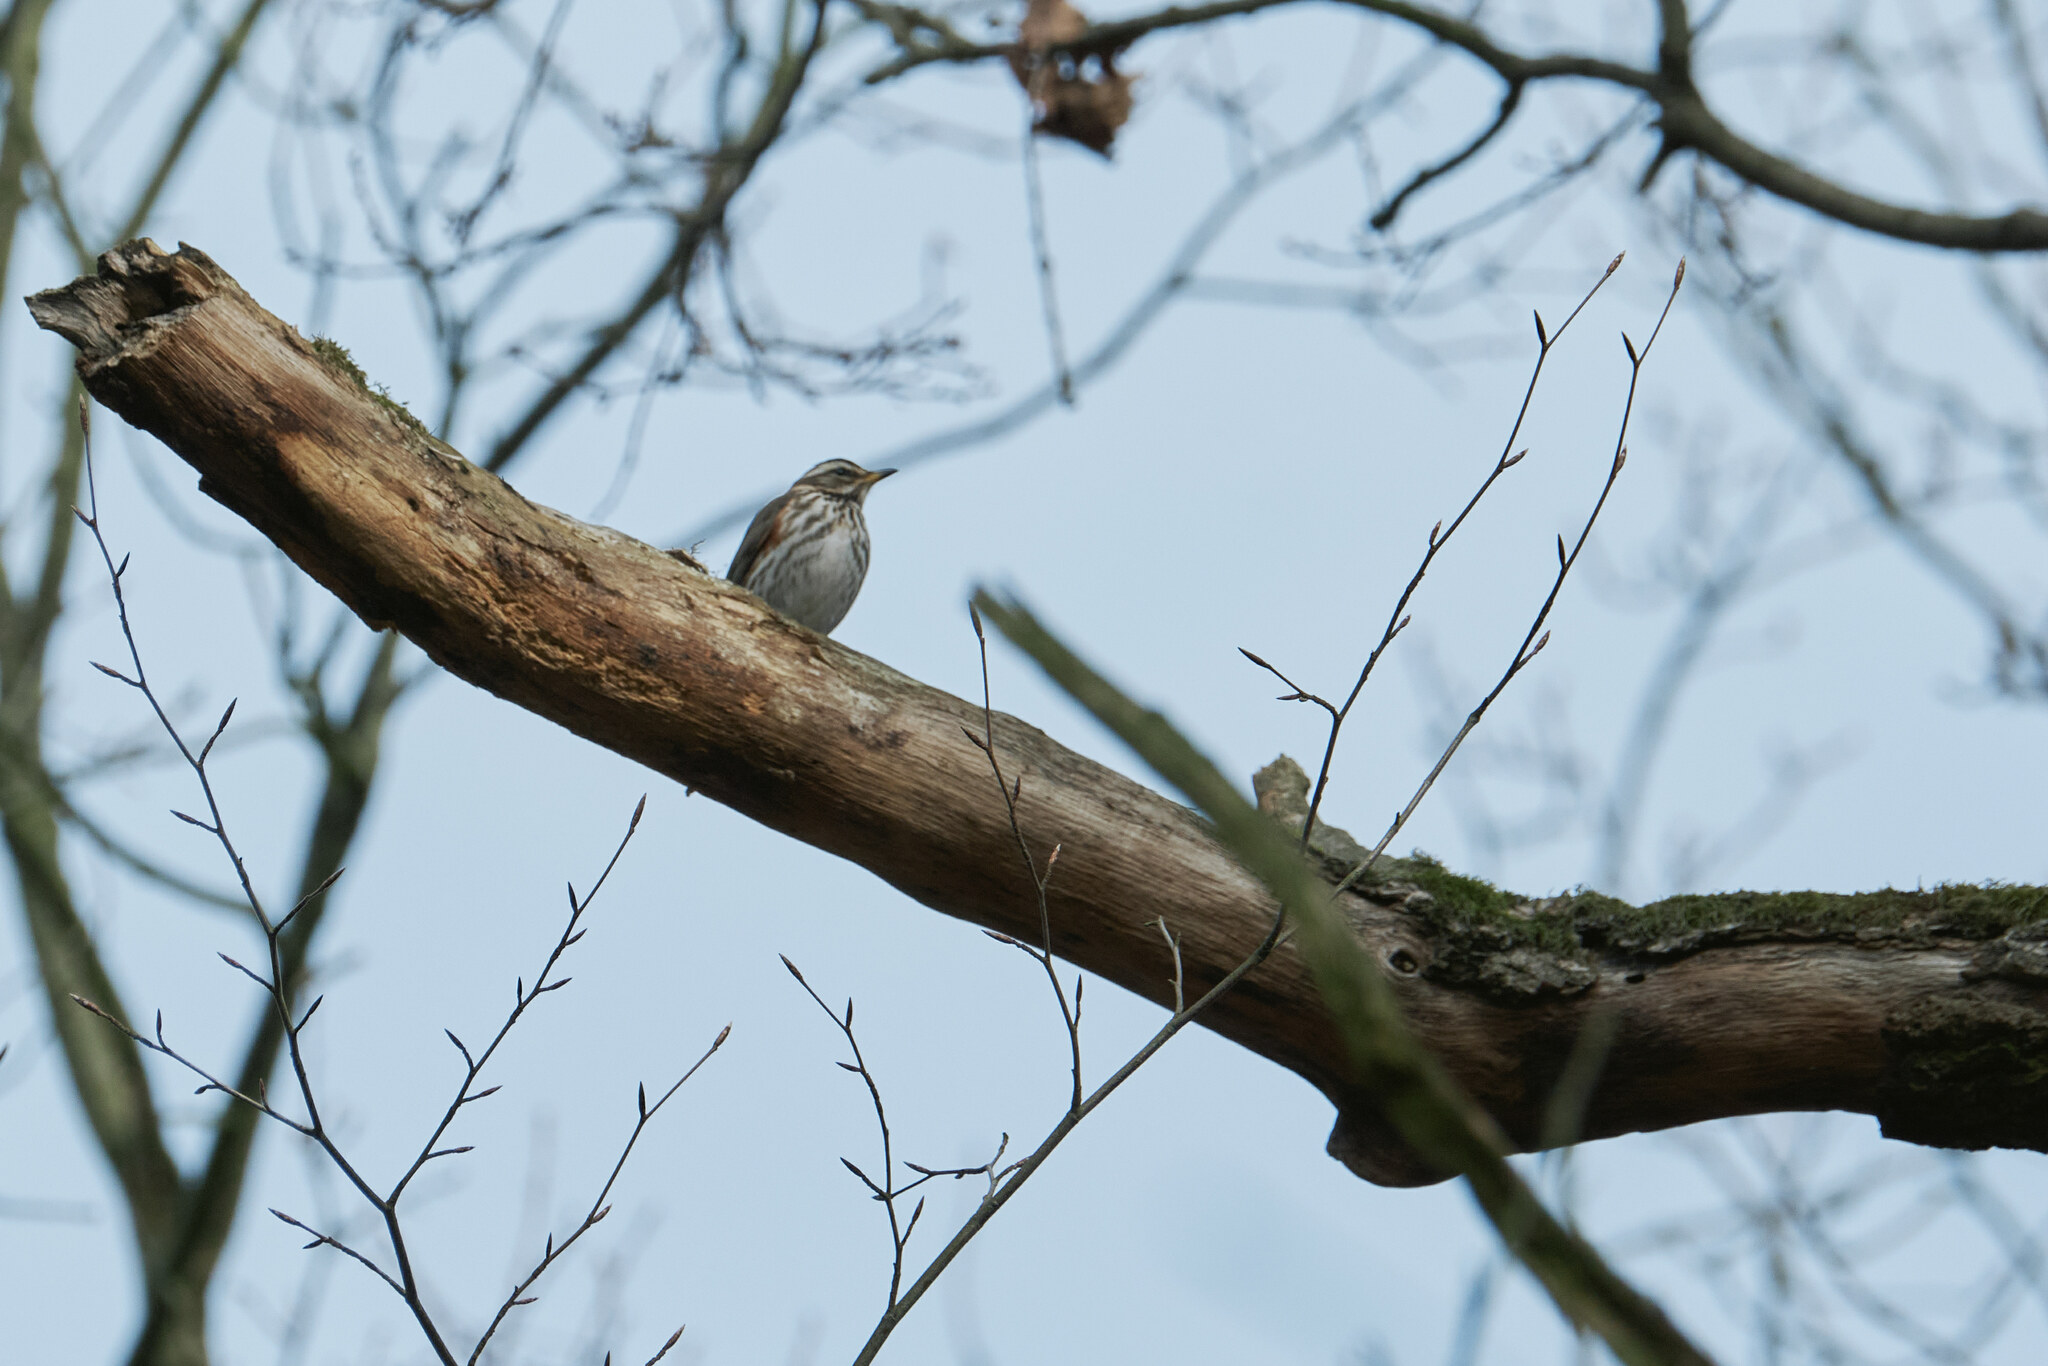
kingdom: Animalia
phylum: Chordata
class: Aves
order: Passeriformes
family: Turdidae
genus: Turdus
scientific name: Turdus iliacus
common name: Redwing
